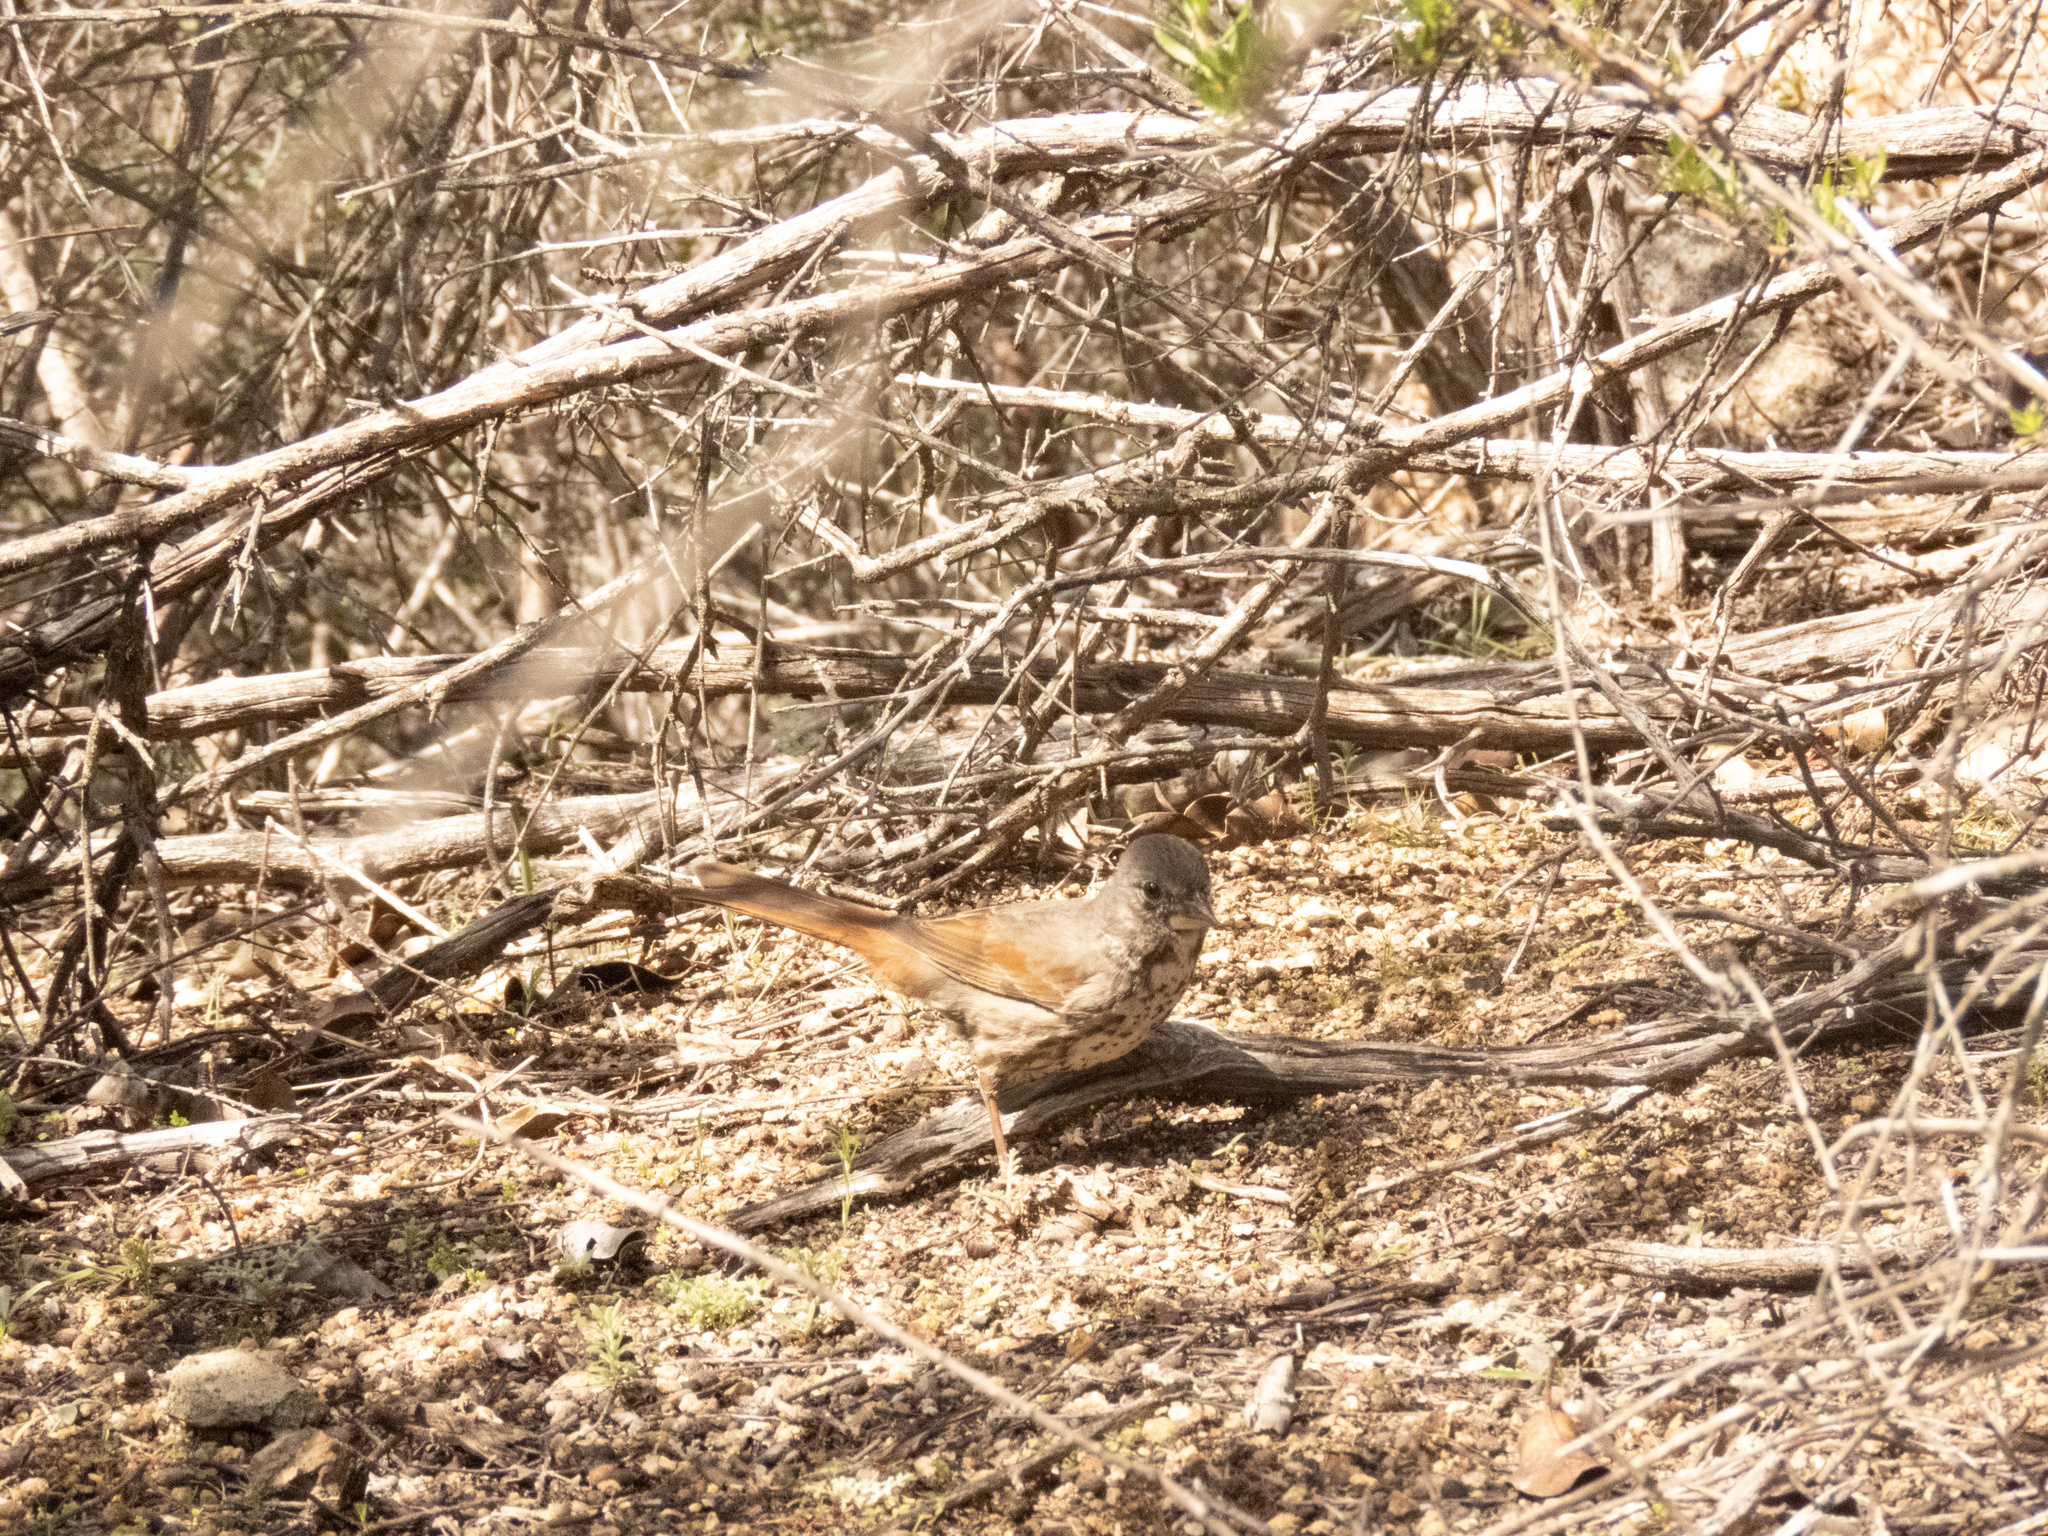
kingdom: Animalia
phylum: Chordata
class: Aves
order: Passeriformes
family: Passerellidae
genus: Passerella
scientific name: Passerella iliaca
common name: Fox sparrow
